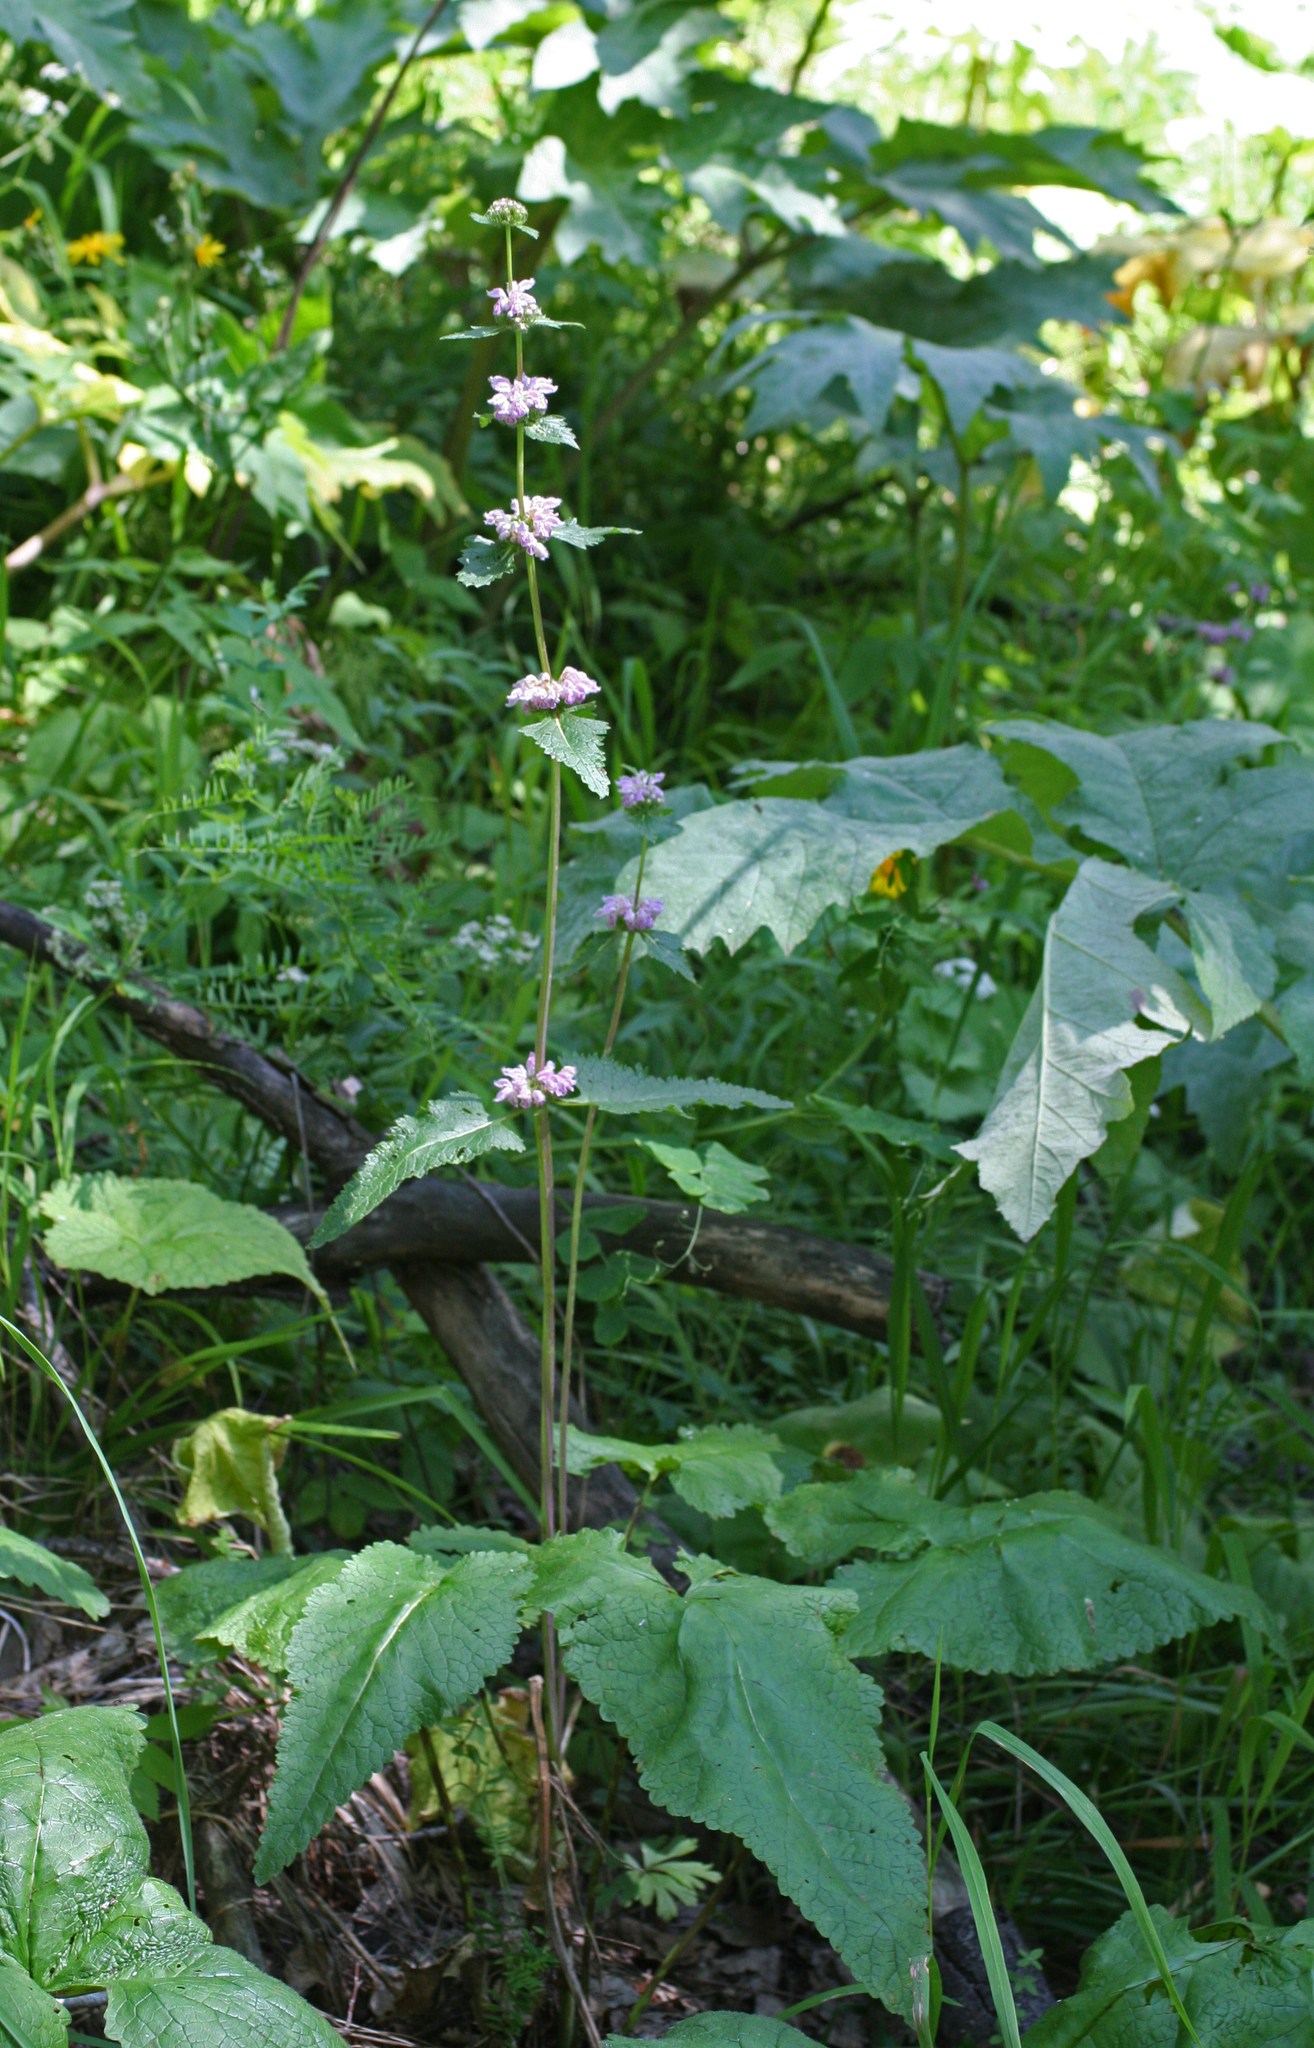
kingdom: Plantae
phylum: Tracheophyta
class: Magnoliopsida
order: Lamiales
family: Lamiaceae
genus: Phlomoides
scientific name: Phlomoides tuberosa
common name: Tuberous jerusalem sage
